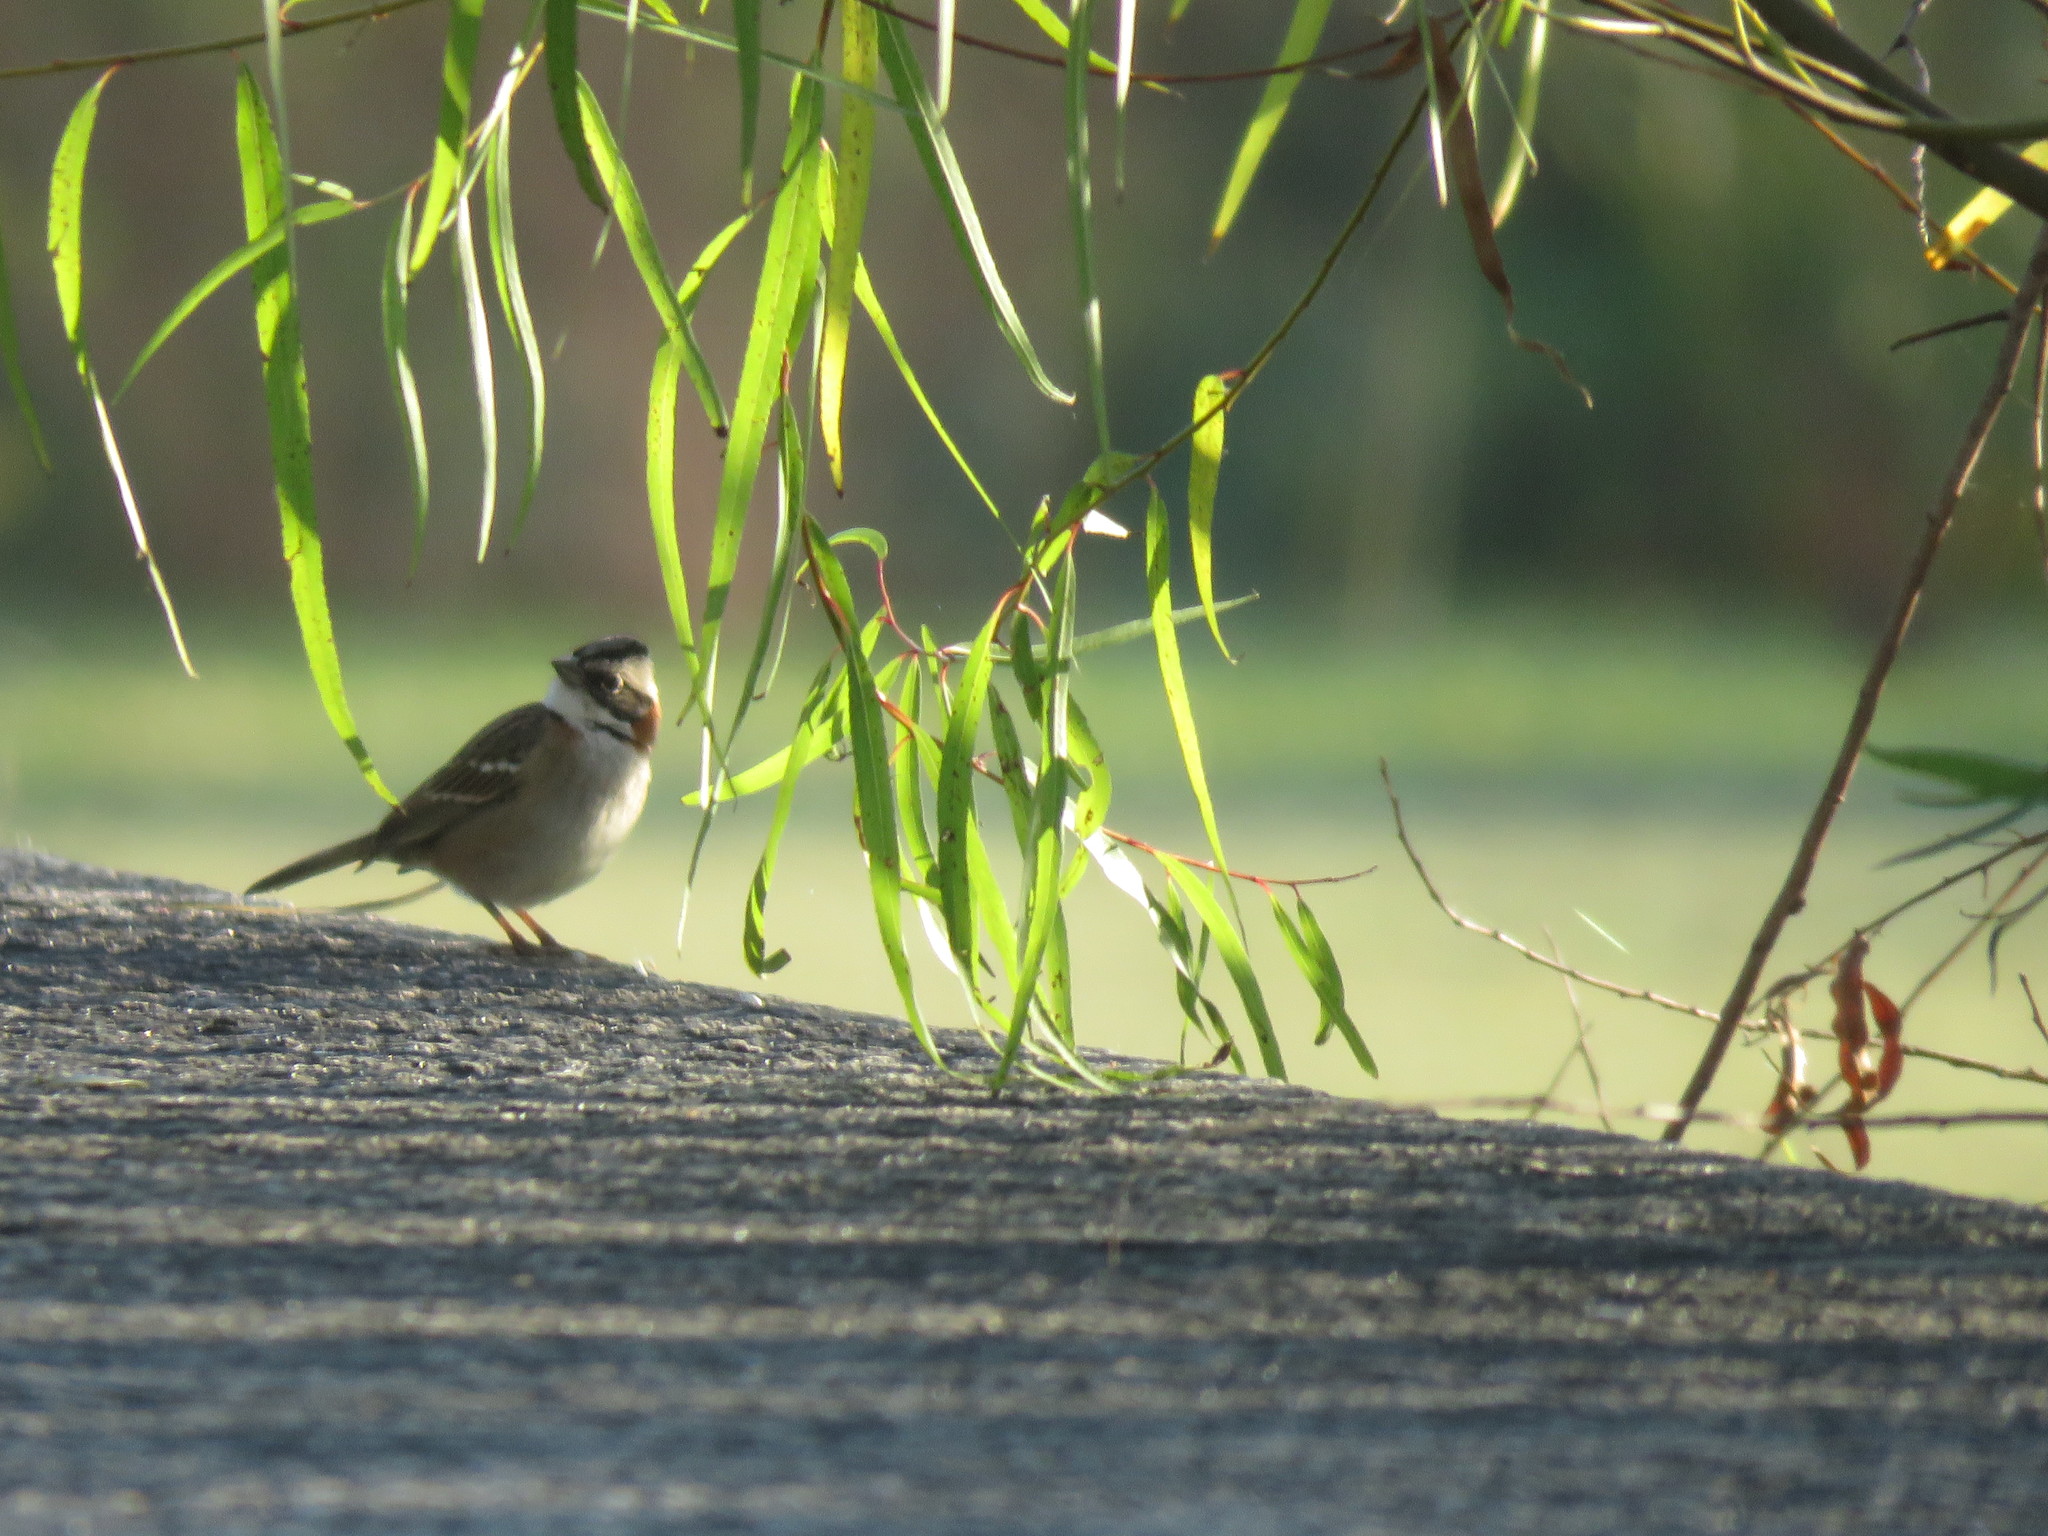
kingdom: Animalia
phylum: Chordata
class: Aves
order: Passeriformes
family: Passerellidae
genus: Zonotrichia
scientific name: Zonotrichia capensis
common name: Rufous-collared sparrow
